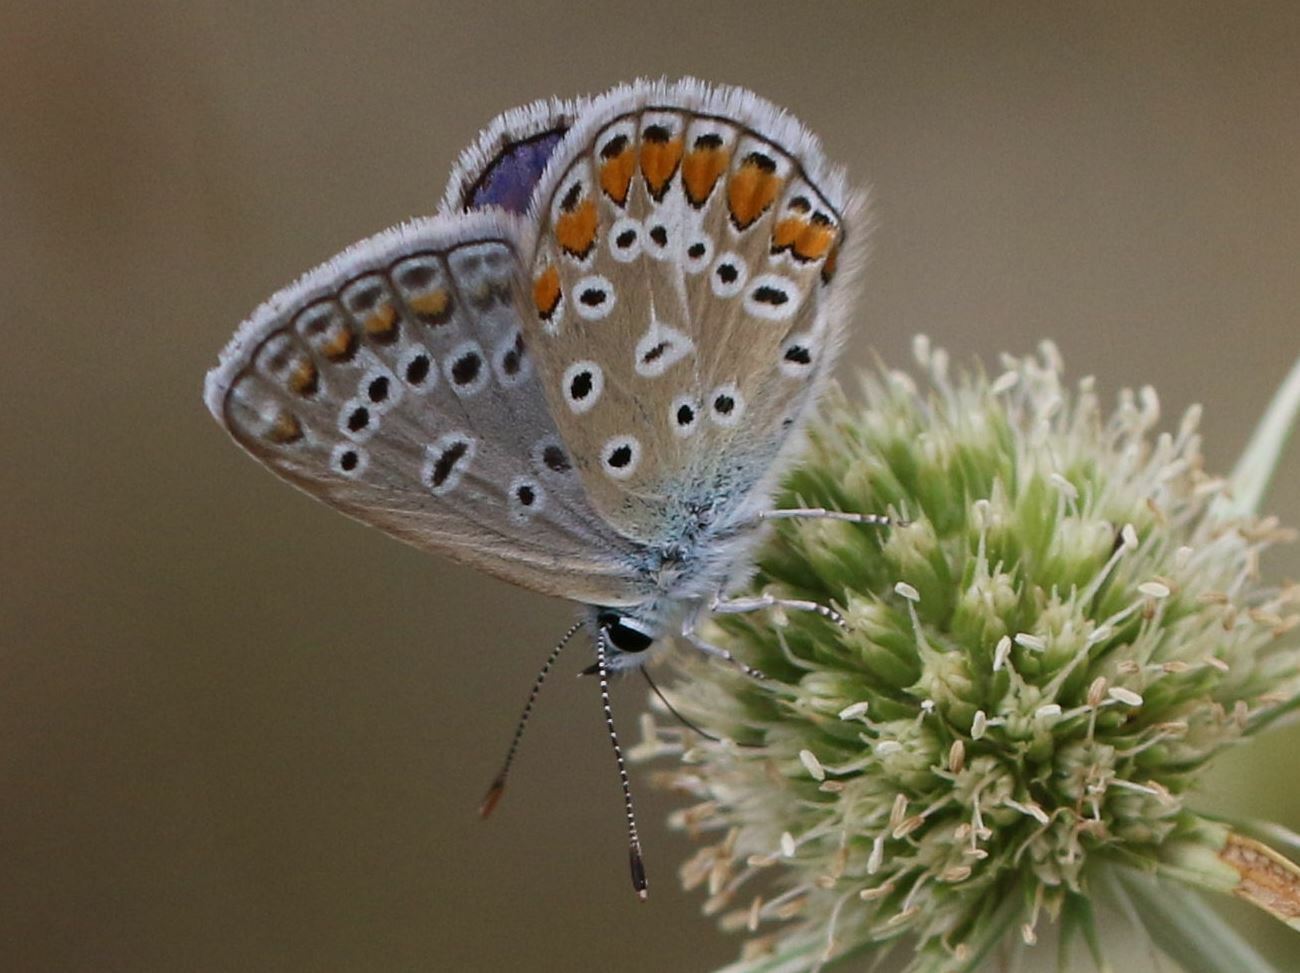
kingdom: Animalia
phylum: Arthropoda
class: Insecta
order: Lepidoptera
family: Lycaenidae
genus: Polyommatus
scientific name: Polyommatus icarus
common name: Common blue
